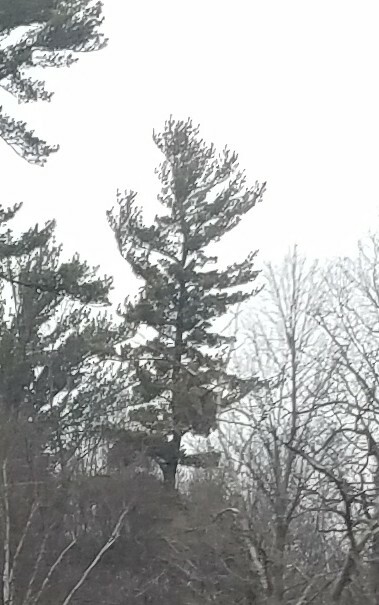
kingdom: Plantae
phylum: Tracheophyta
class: Pinopsida
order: Pinales
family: Pinaceae
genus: Pinus
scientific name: Pinus strobus
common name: Weymouth pine
